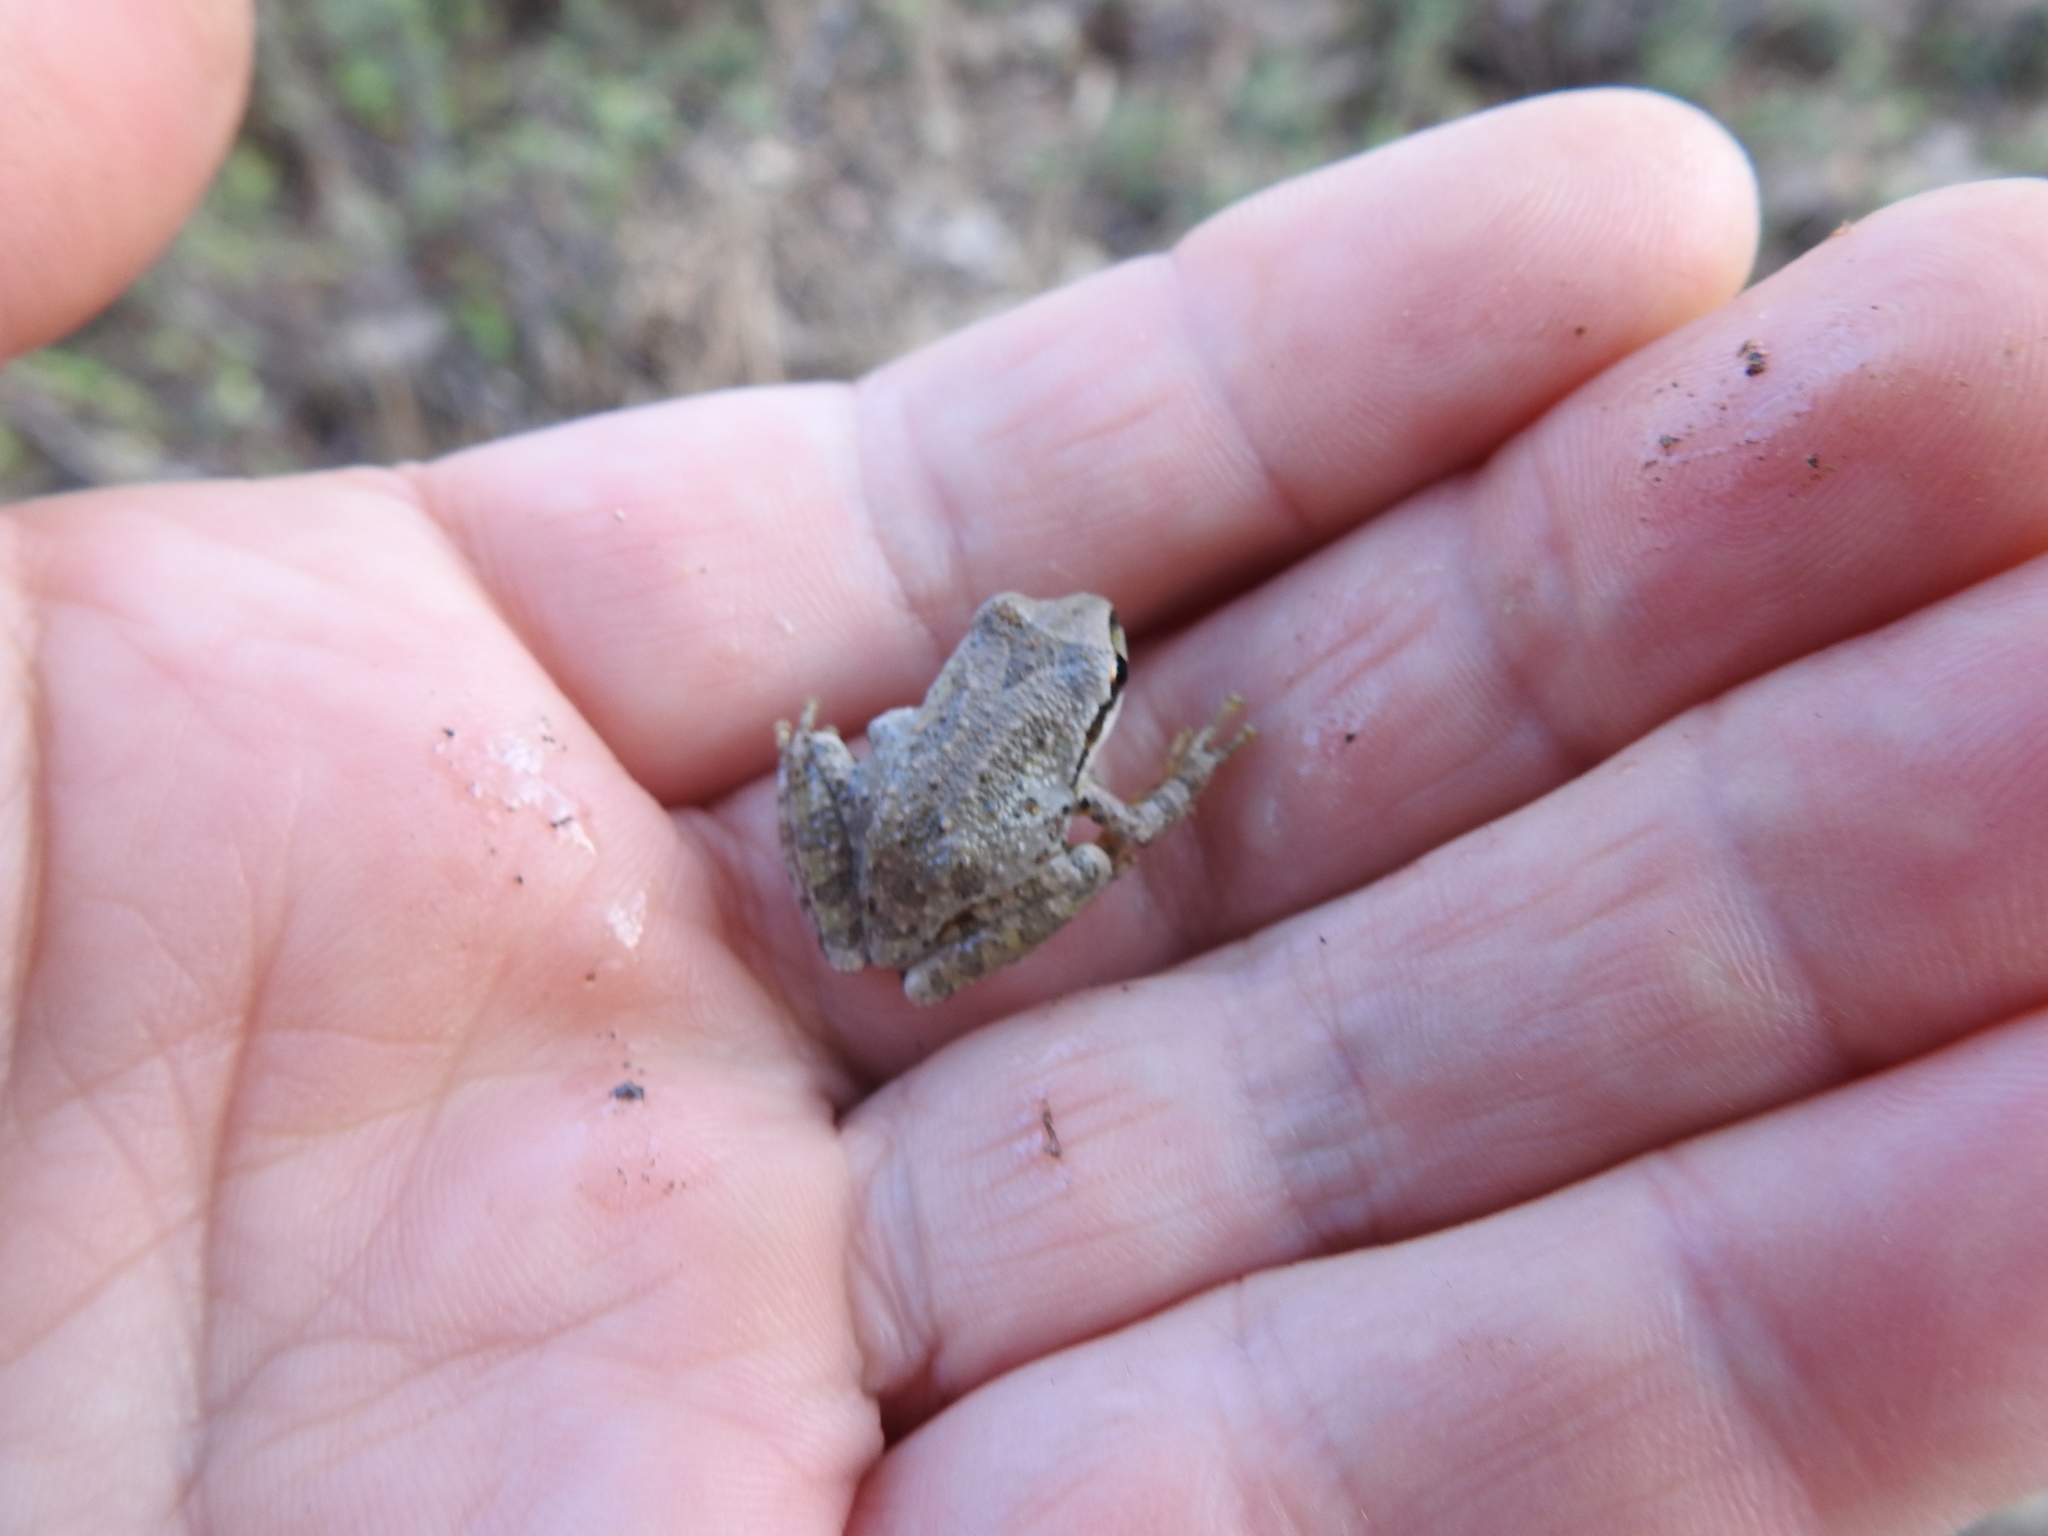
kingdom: Animalia
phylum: Chordata
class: Amphibia
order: Anura
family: Hylidae
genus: Pseudacris
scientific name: Pseudacris regilla
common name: Pacific chorus frog
